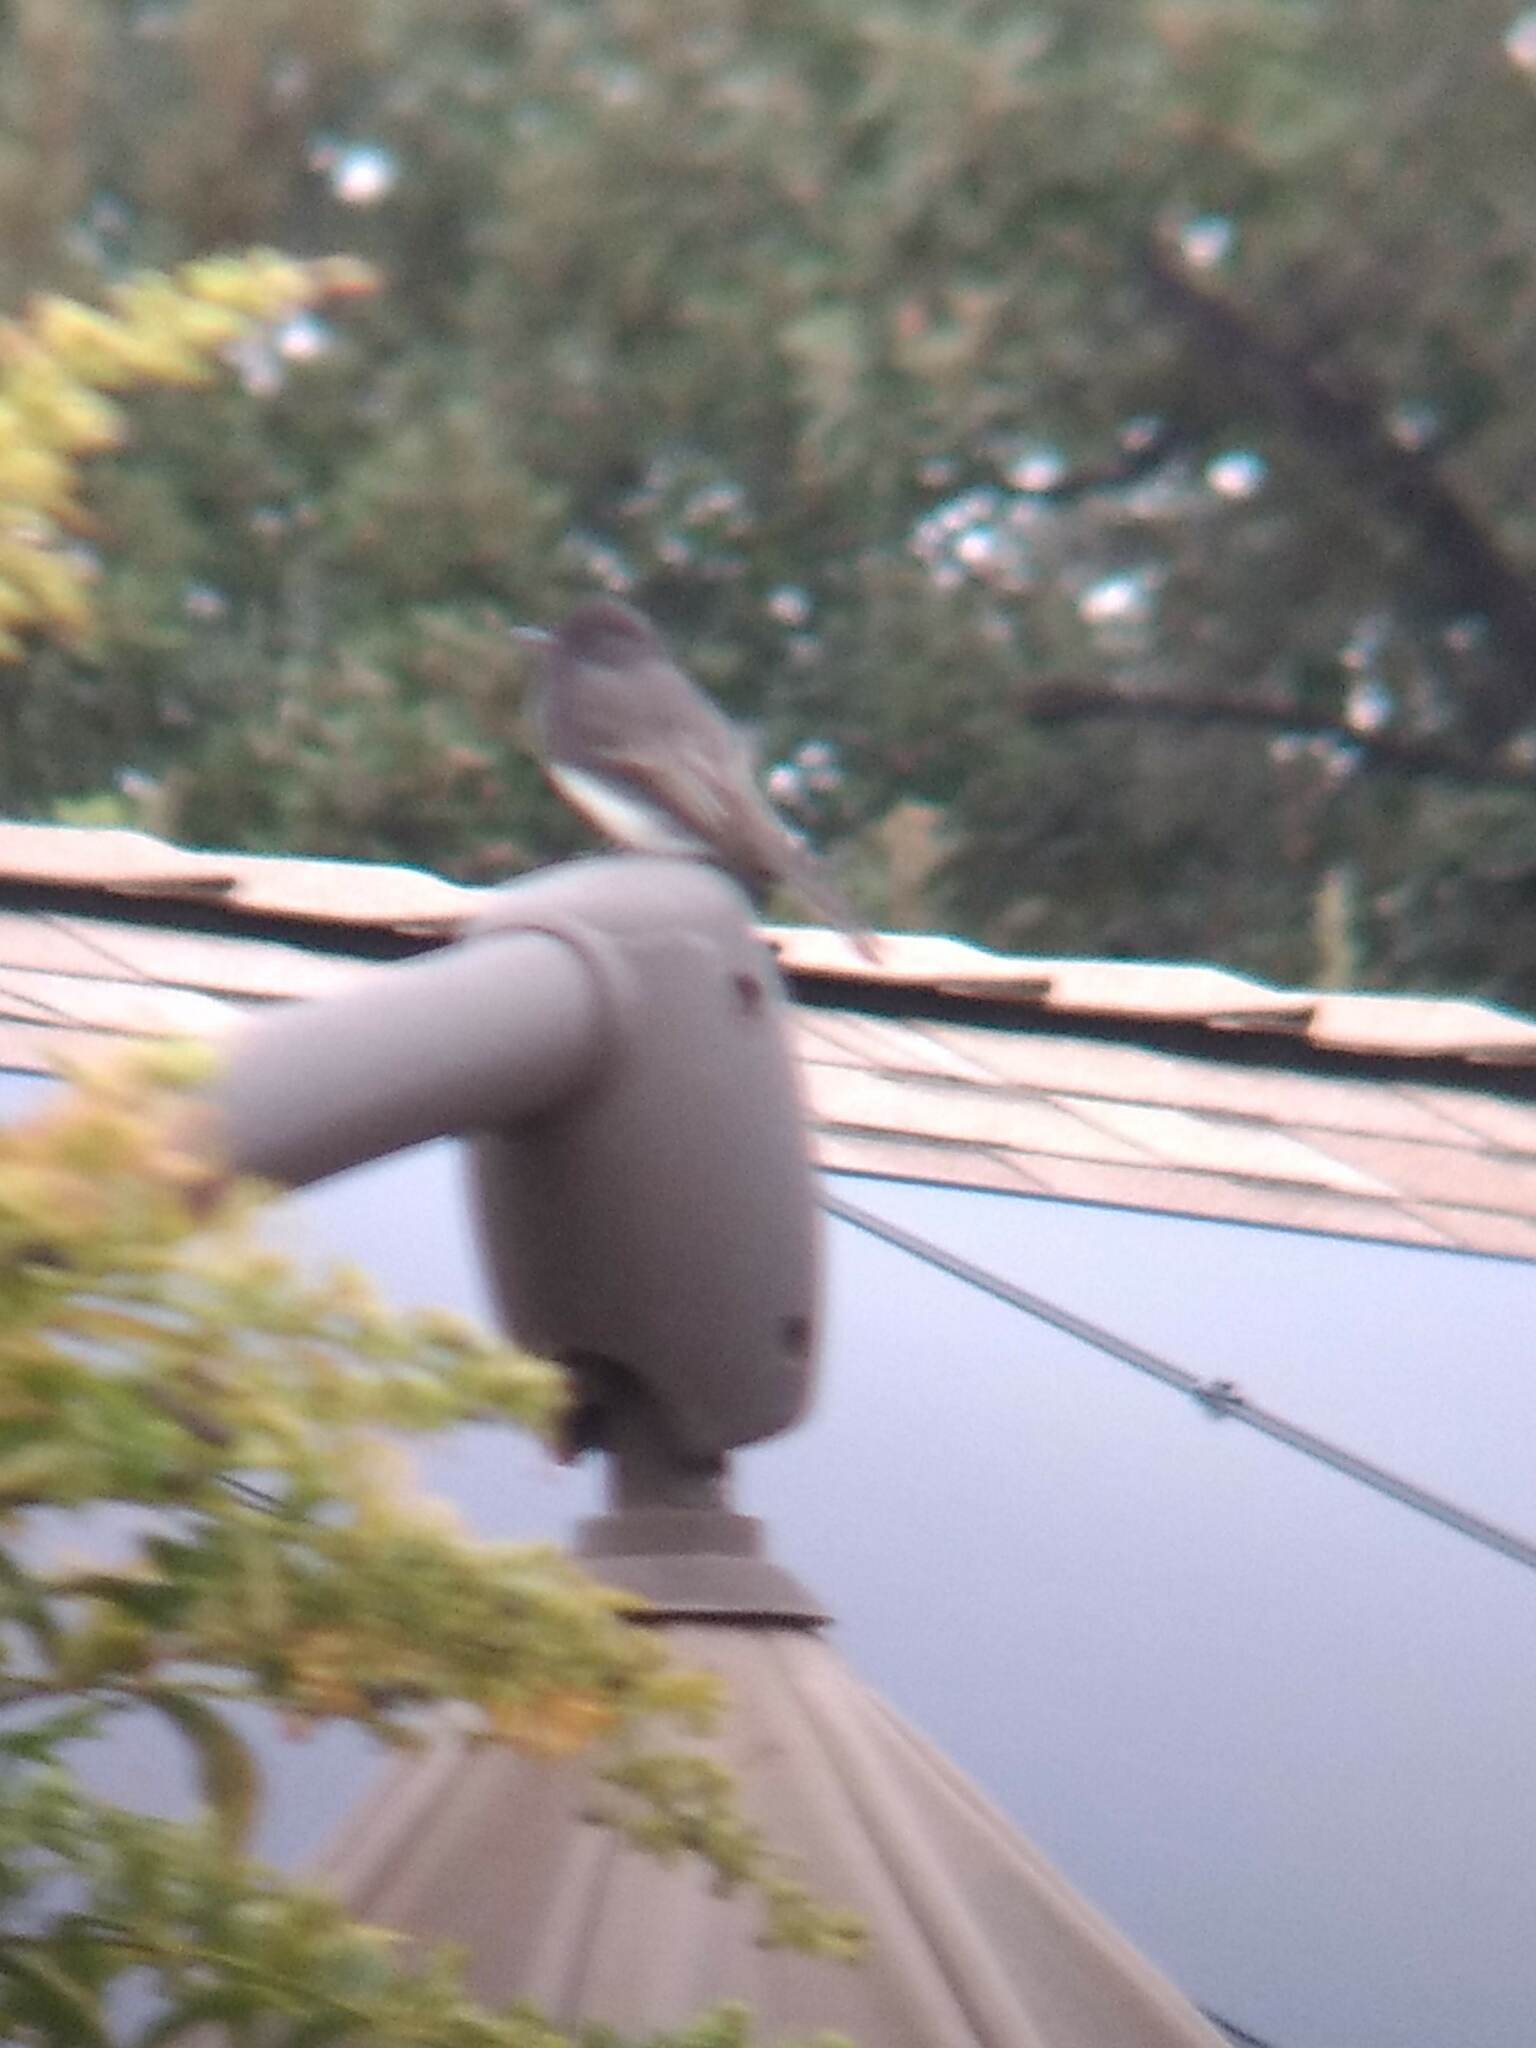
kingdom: Animalia
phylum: Chordata
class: Aves
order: Passeriformes
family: Tyrannidae
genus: Sayornis
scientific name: Sayornis nigricans
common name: Black phoebe
